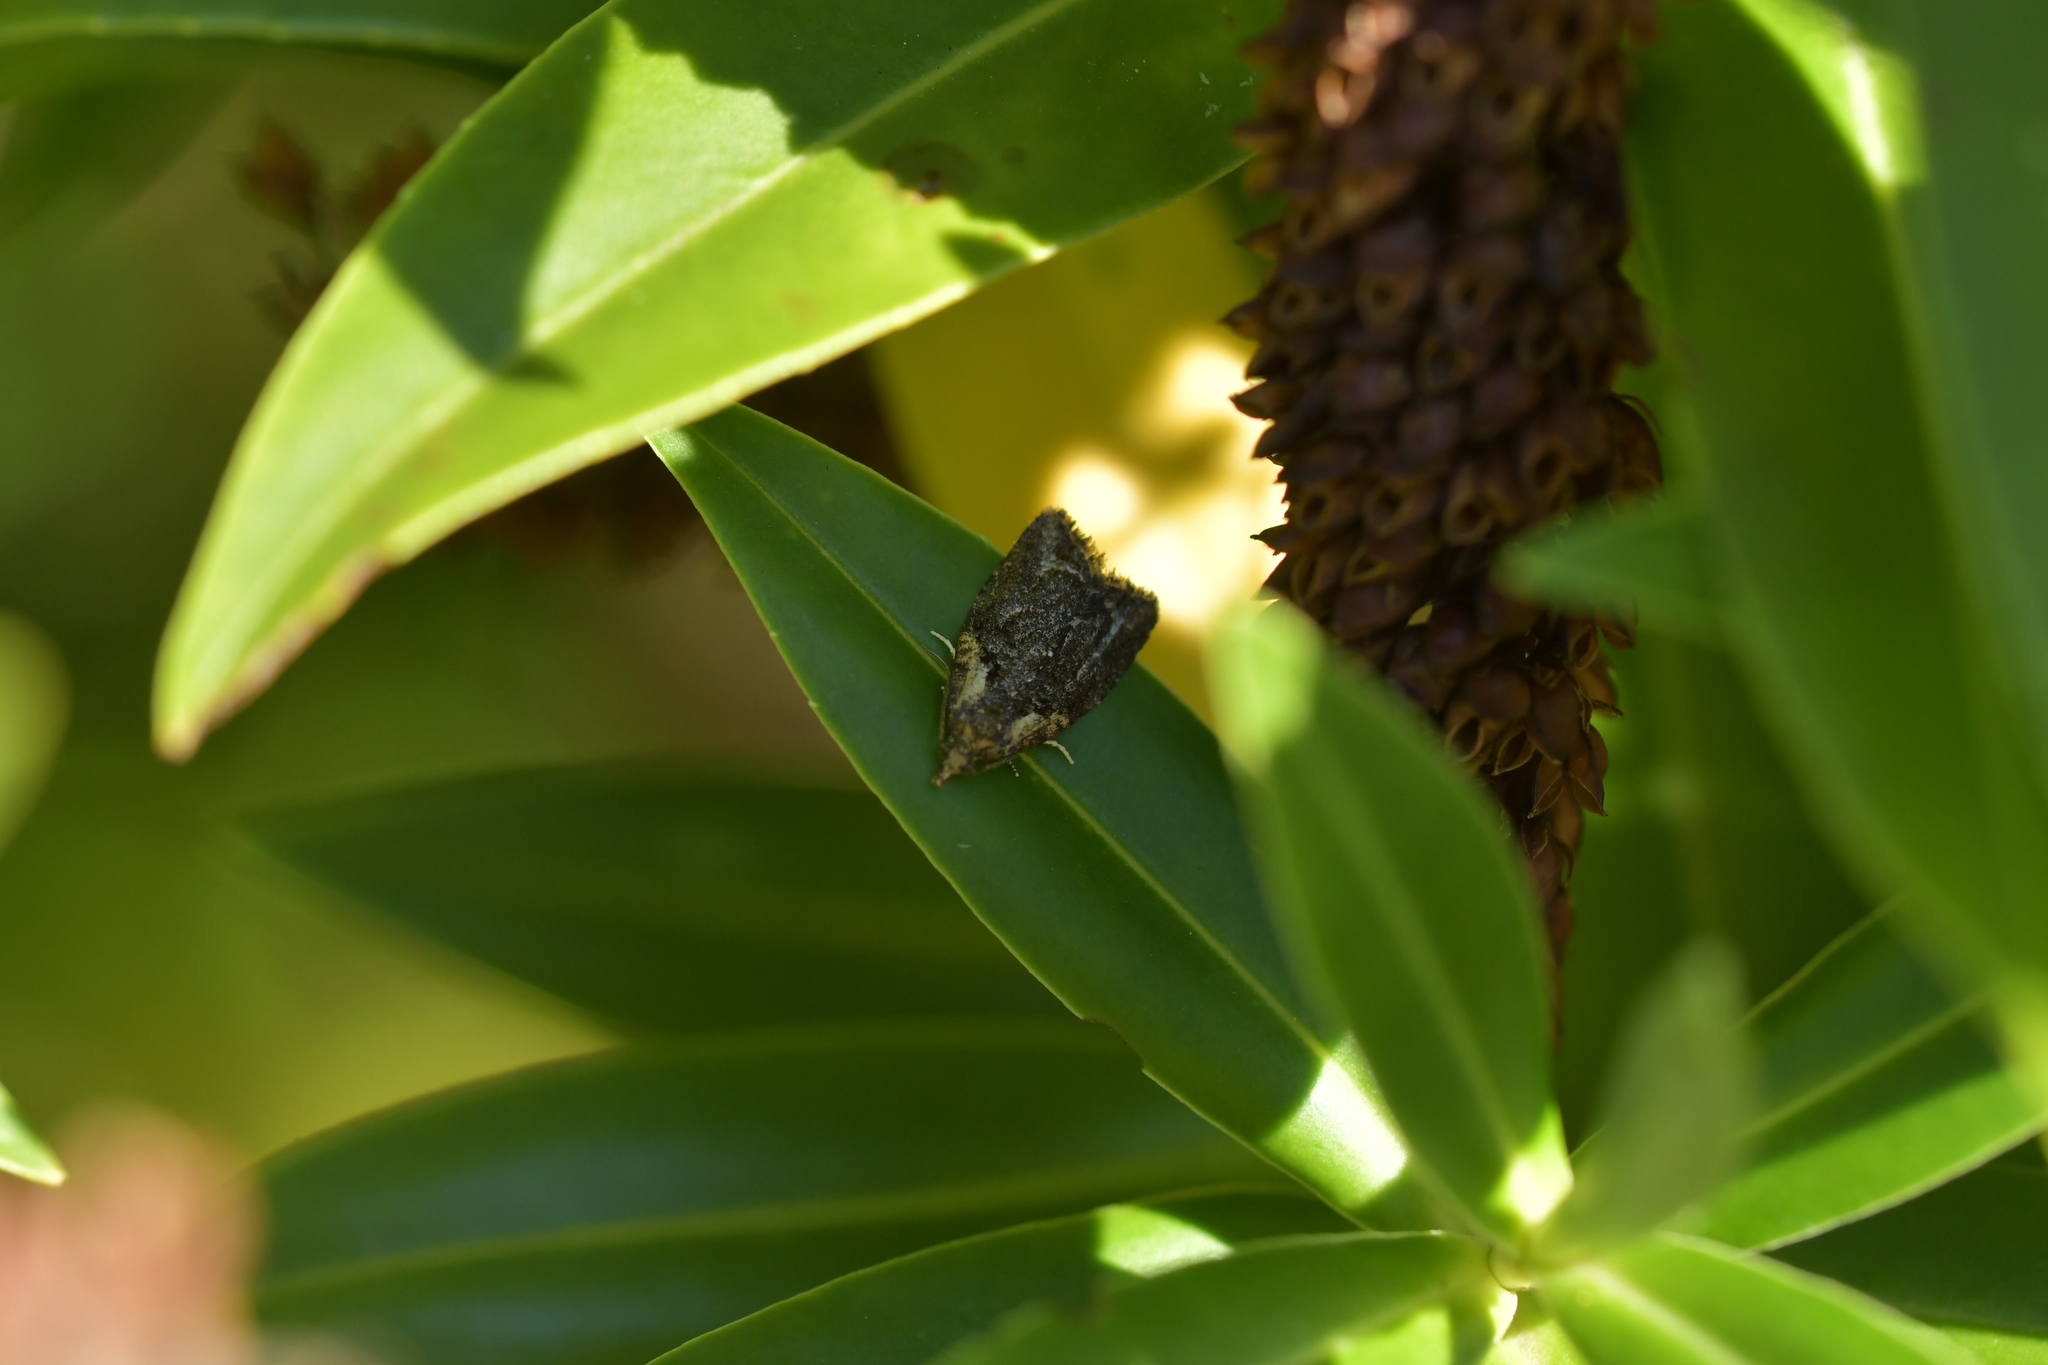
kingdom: Animalia
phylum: Arthropoda
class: Insecta
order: Lepidoptera
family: Tortricidae
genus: Capua
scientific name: Capua intractana
